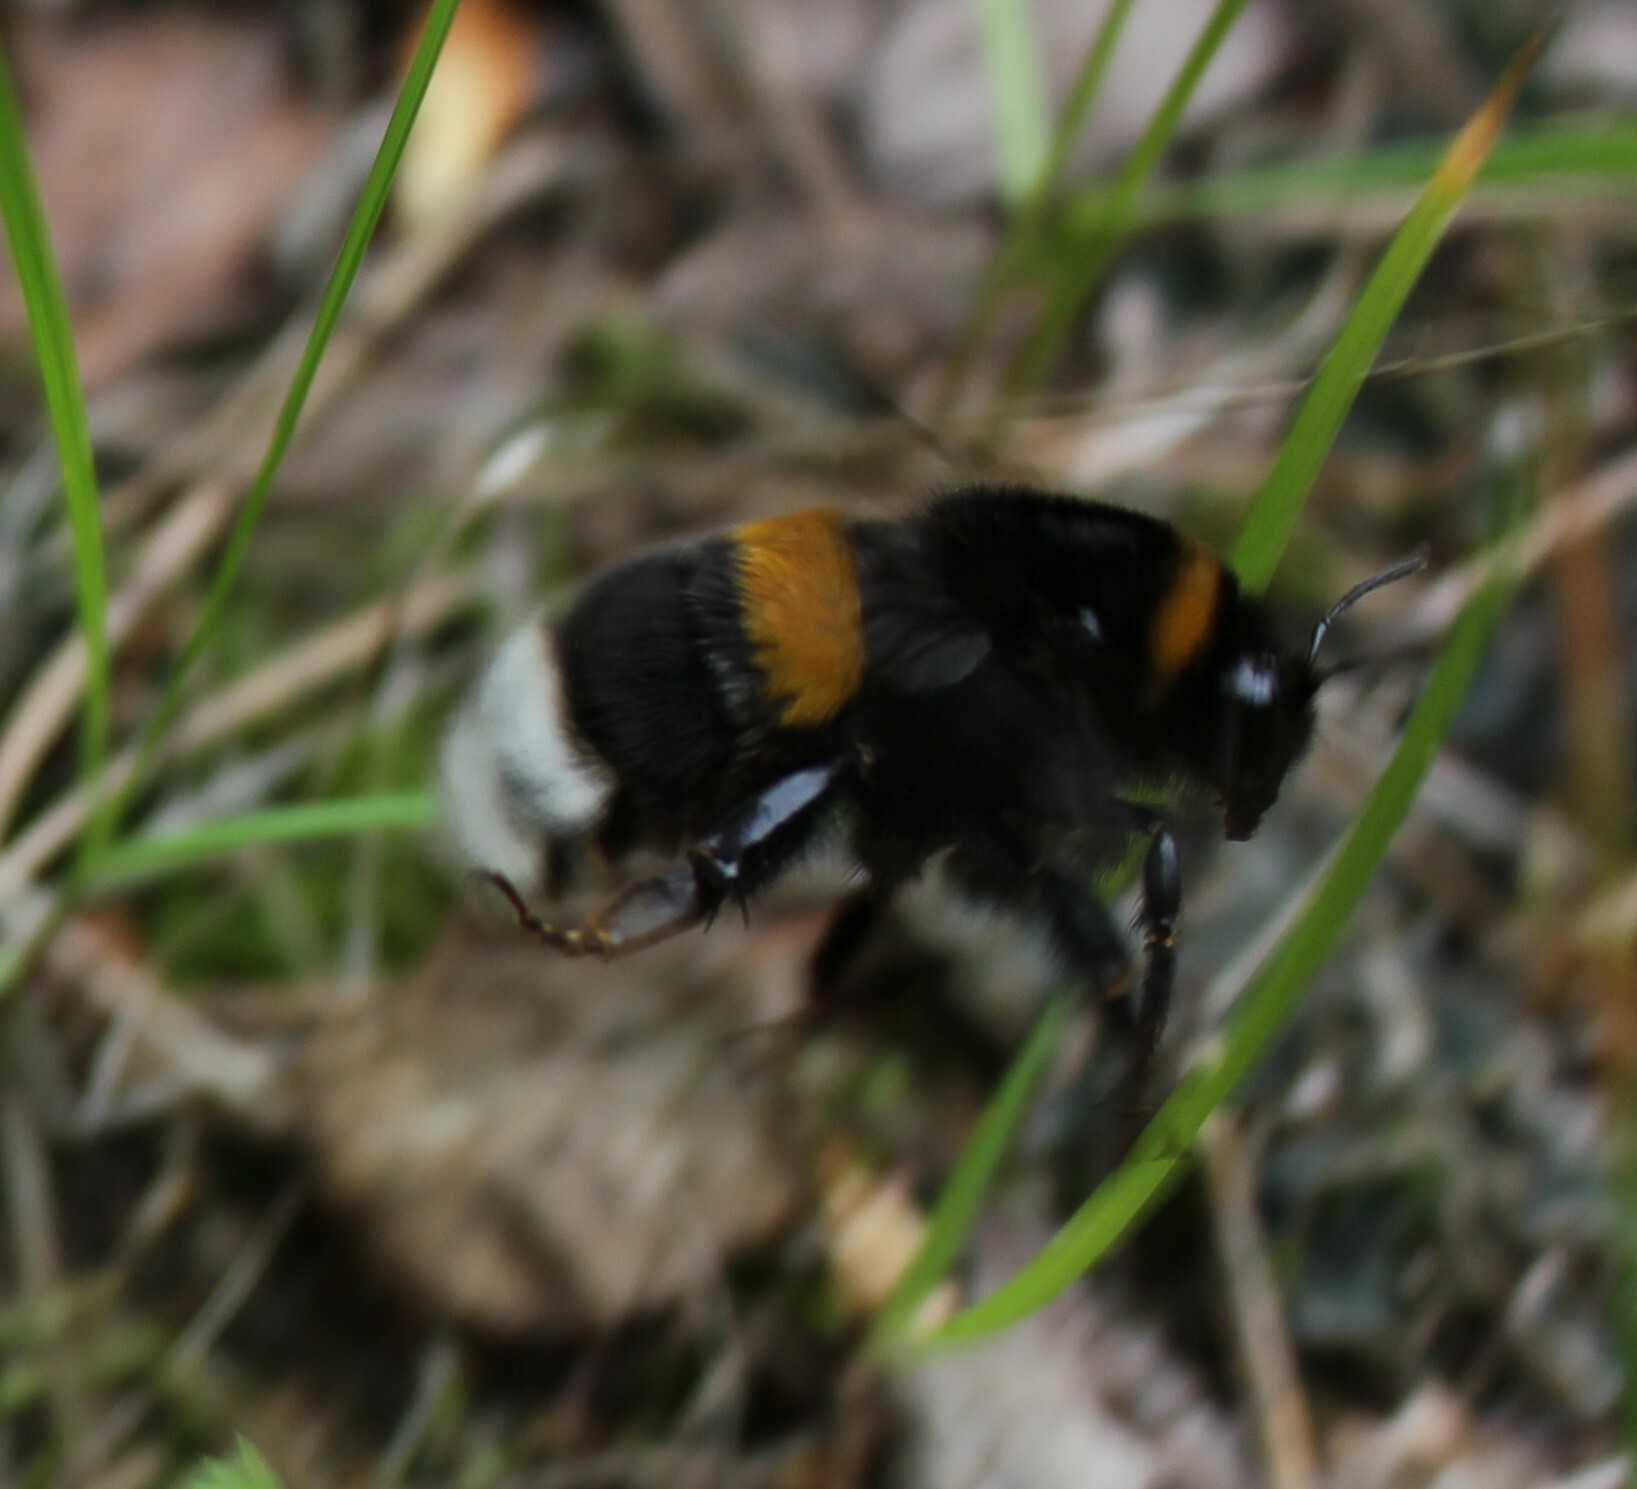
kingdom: Animalia
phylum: Arthropoda
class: Insecta
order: Hymenoptera
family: Apidae
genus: Bombus
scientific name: Bombus
